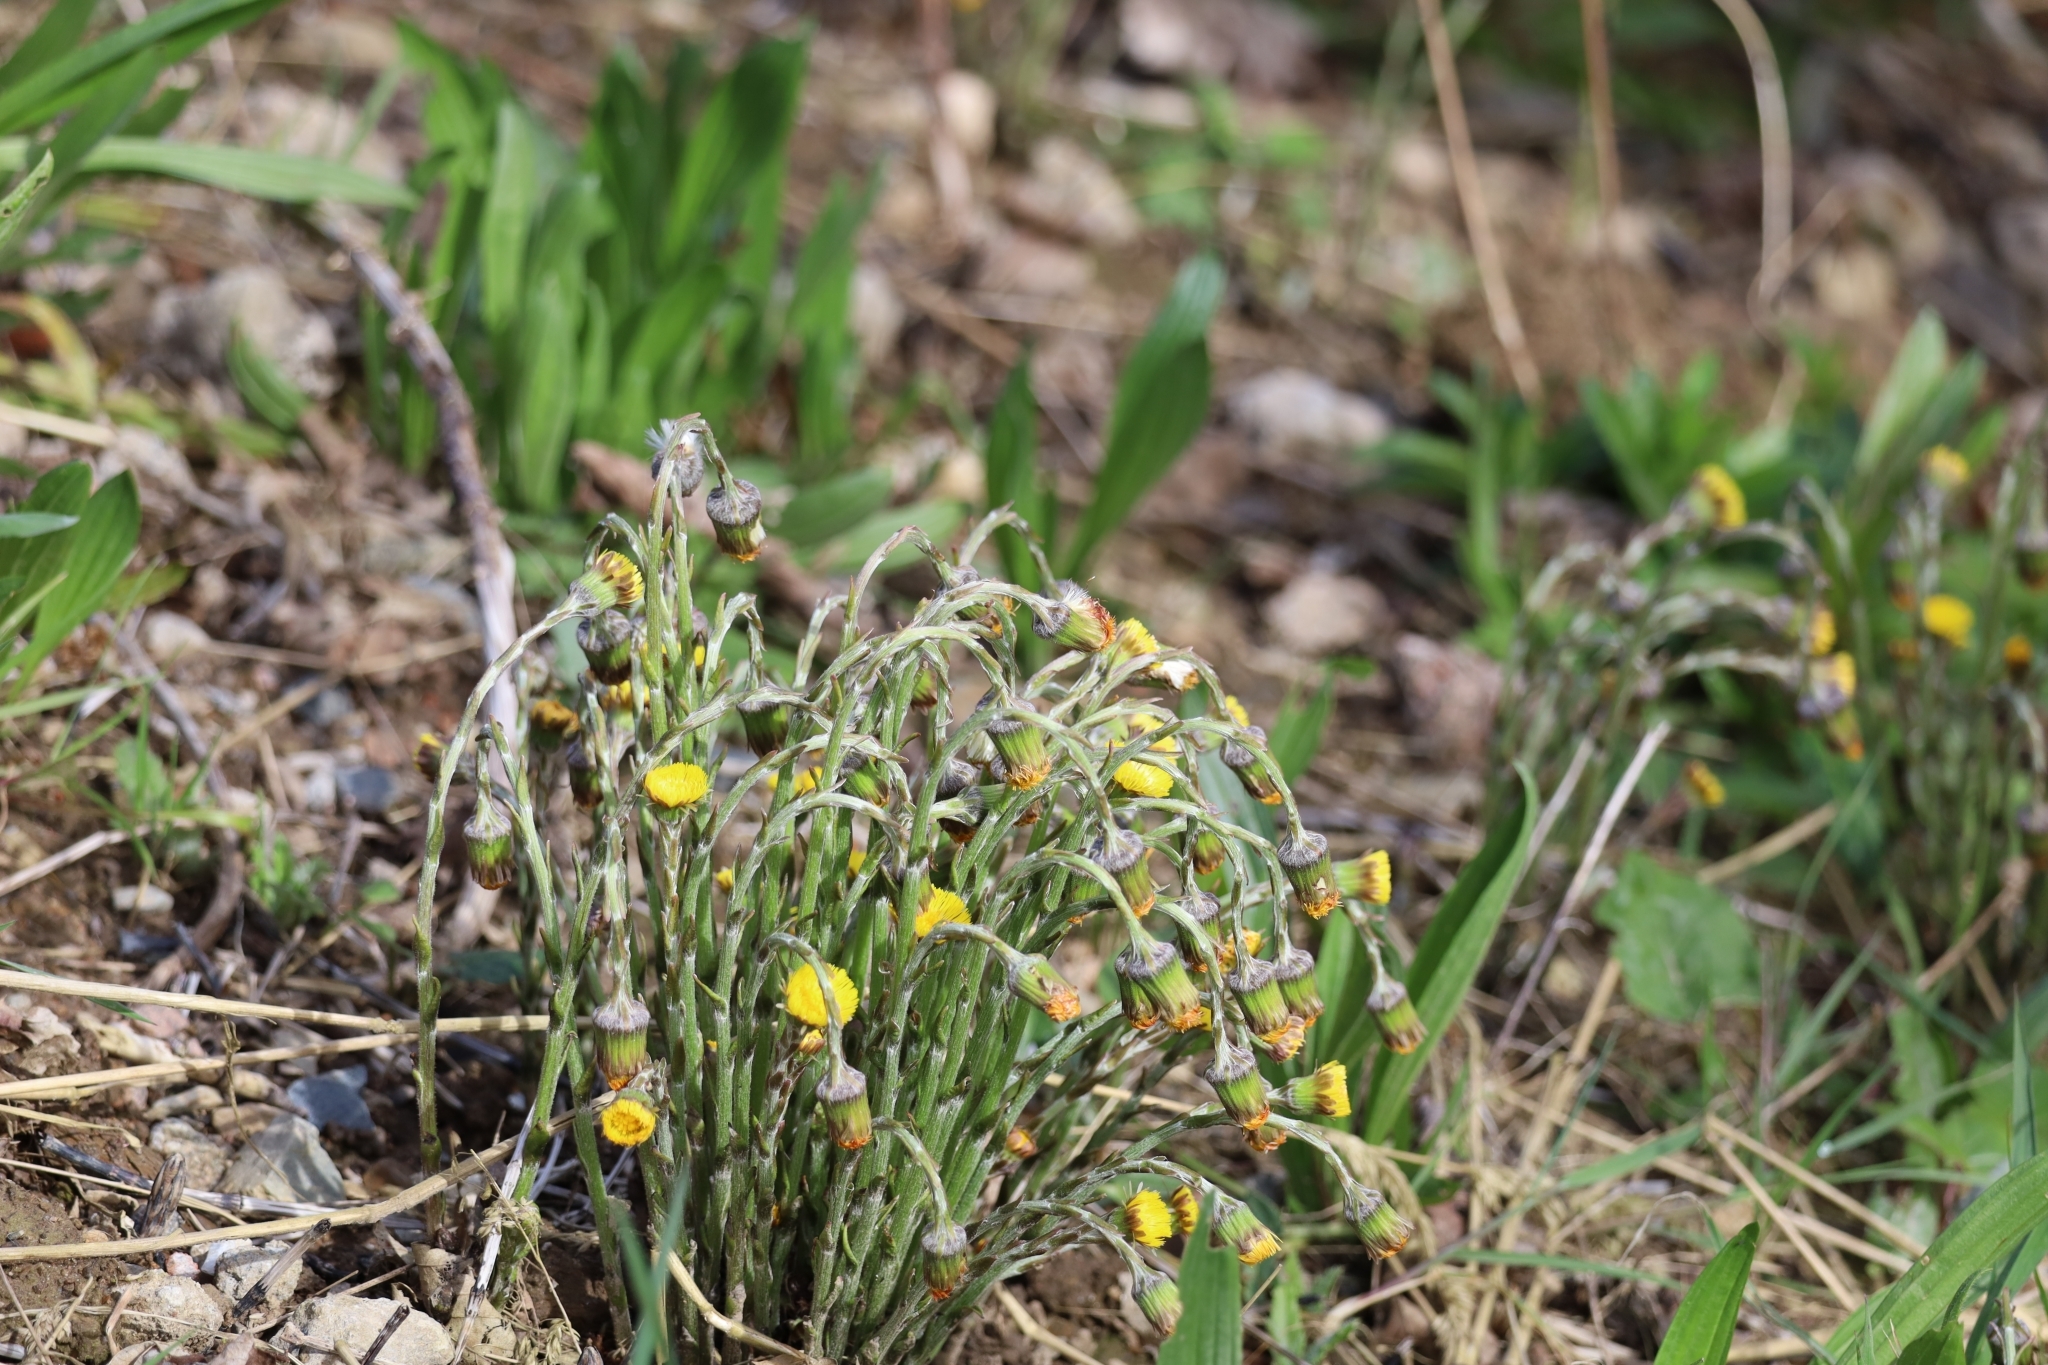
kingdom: Plantae
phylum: Tracheophyta
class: Magnoliopsida
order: Asterales
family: Asteraceae
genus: Tussilago
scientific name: Tussilago farfara
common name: Coltsfoot
